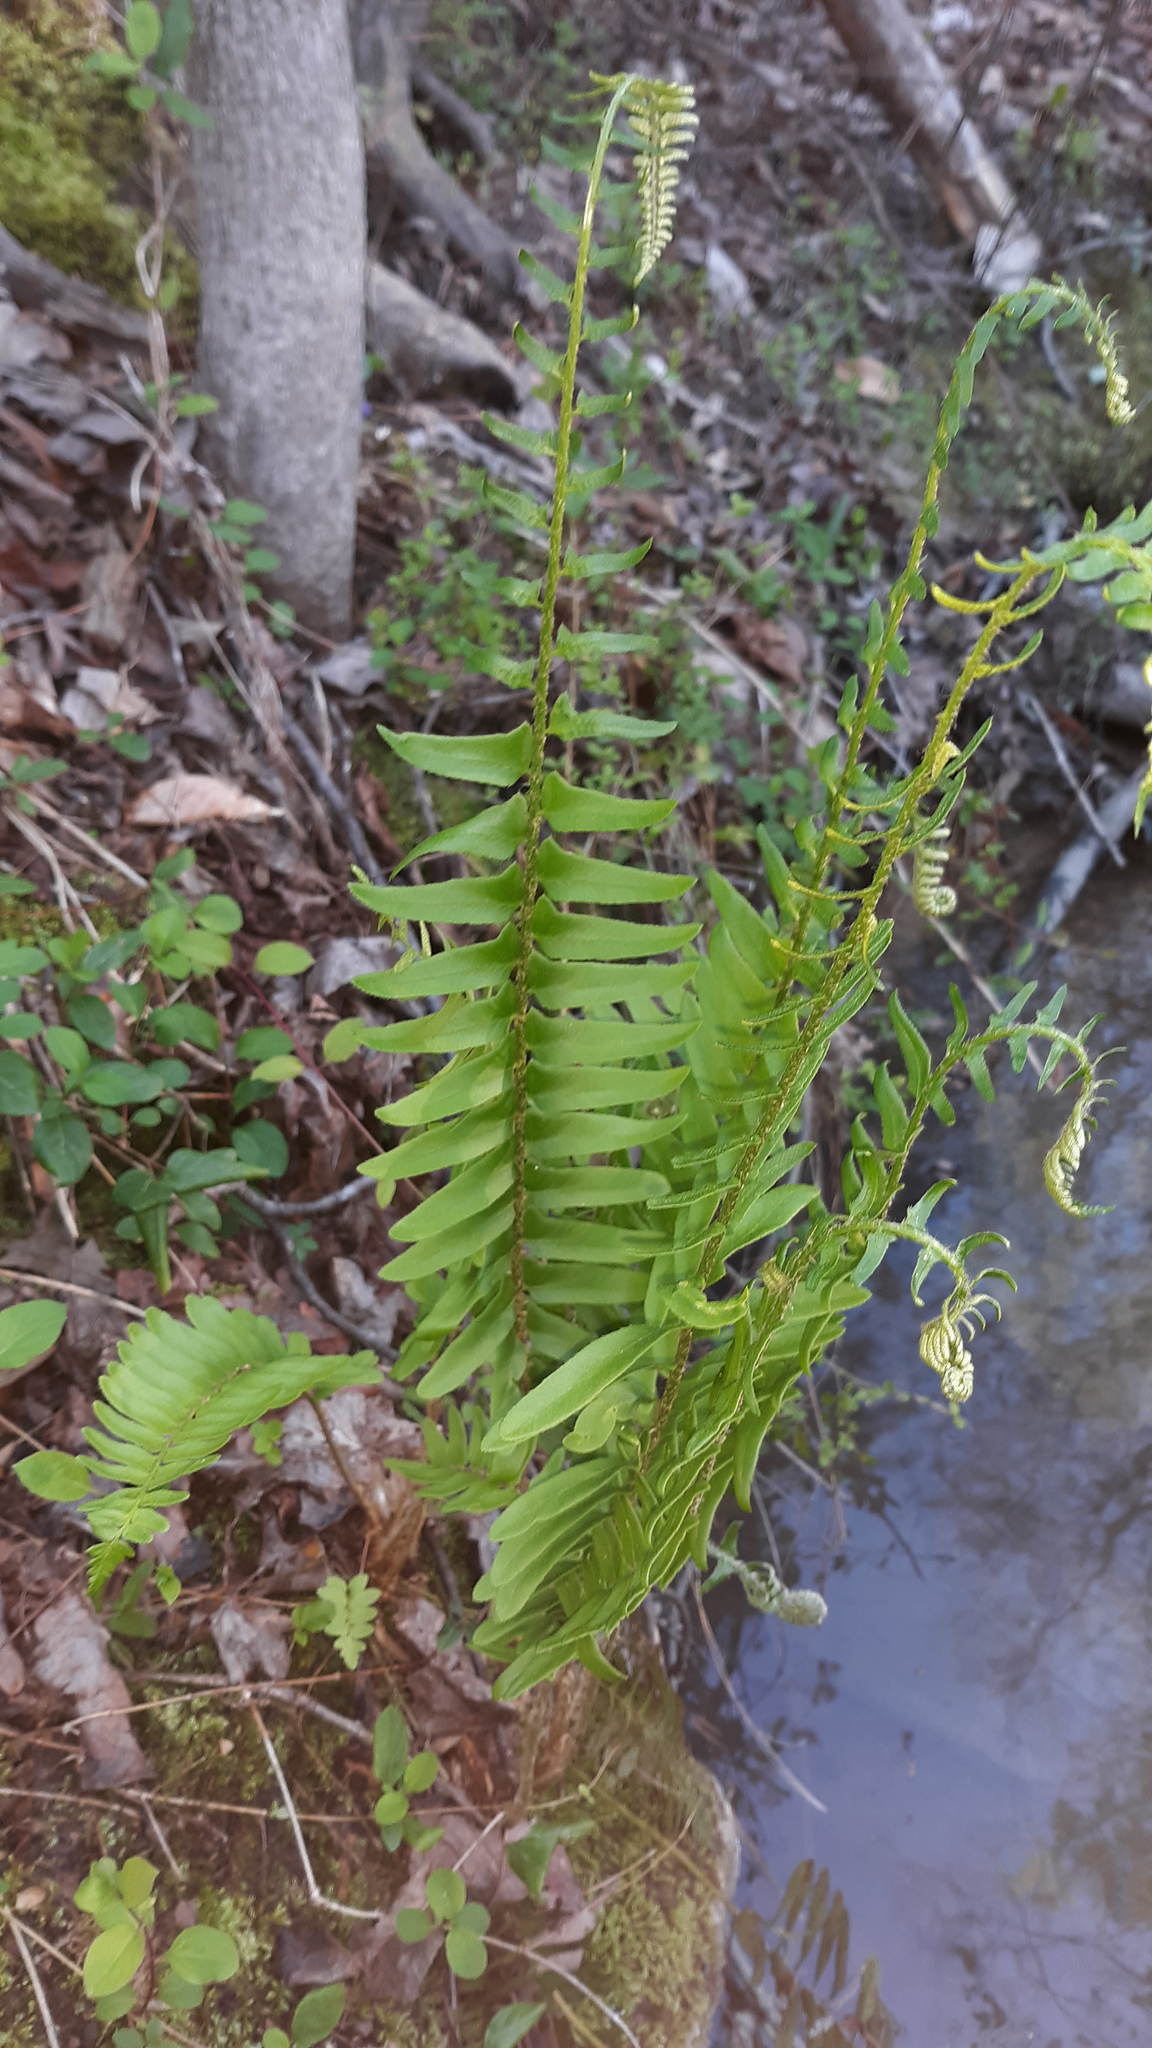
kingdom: Plantae
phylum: Tracheophyta
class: Polypodiopsida
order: Polypodiales
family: Dryopteridaceae
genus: Polystichum
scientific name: Polystichum acrostichoides
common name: Christmas fern
